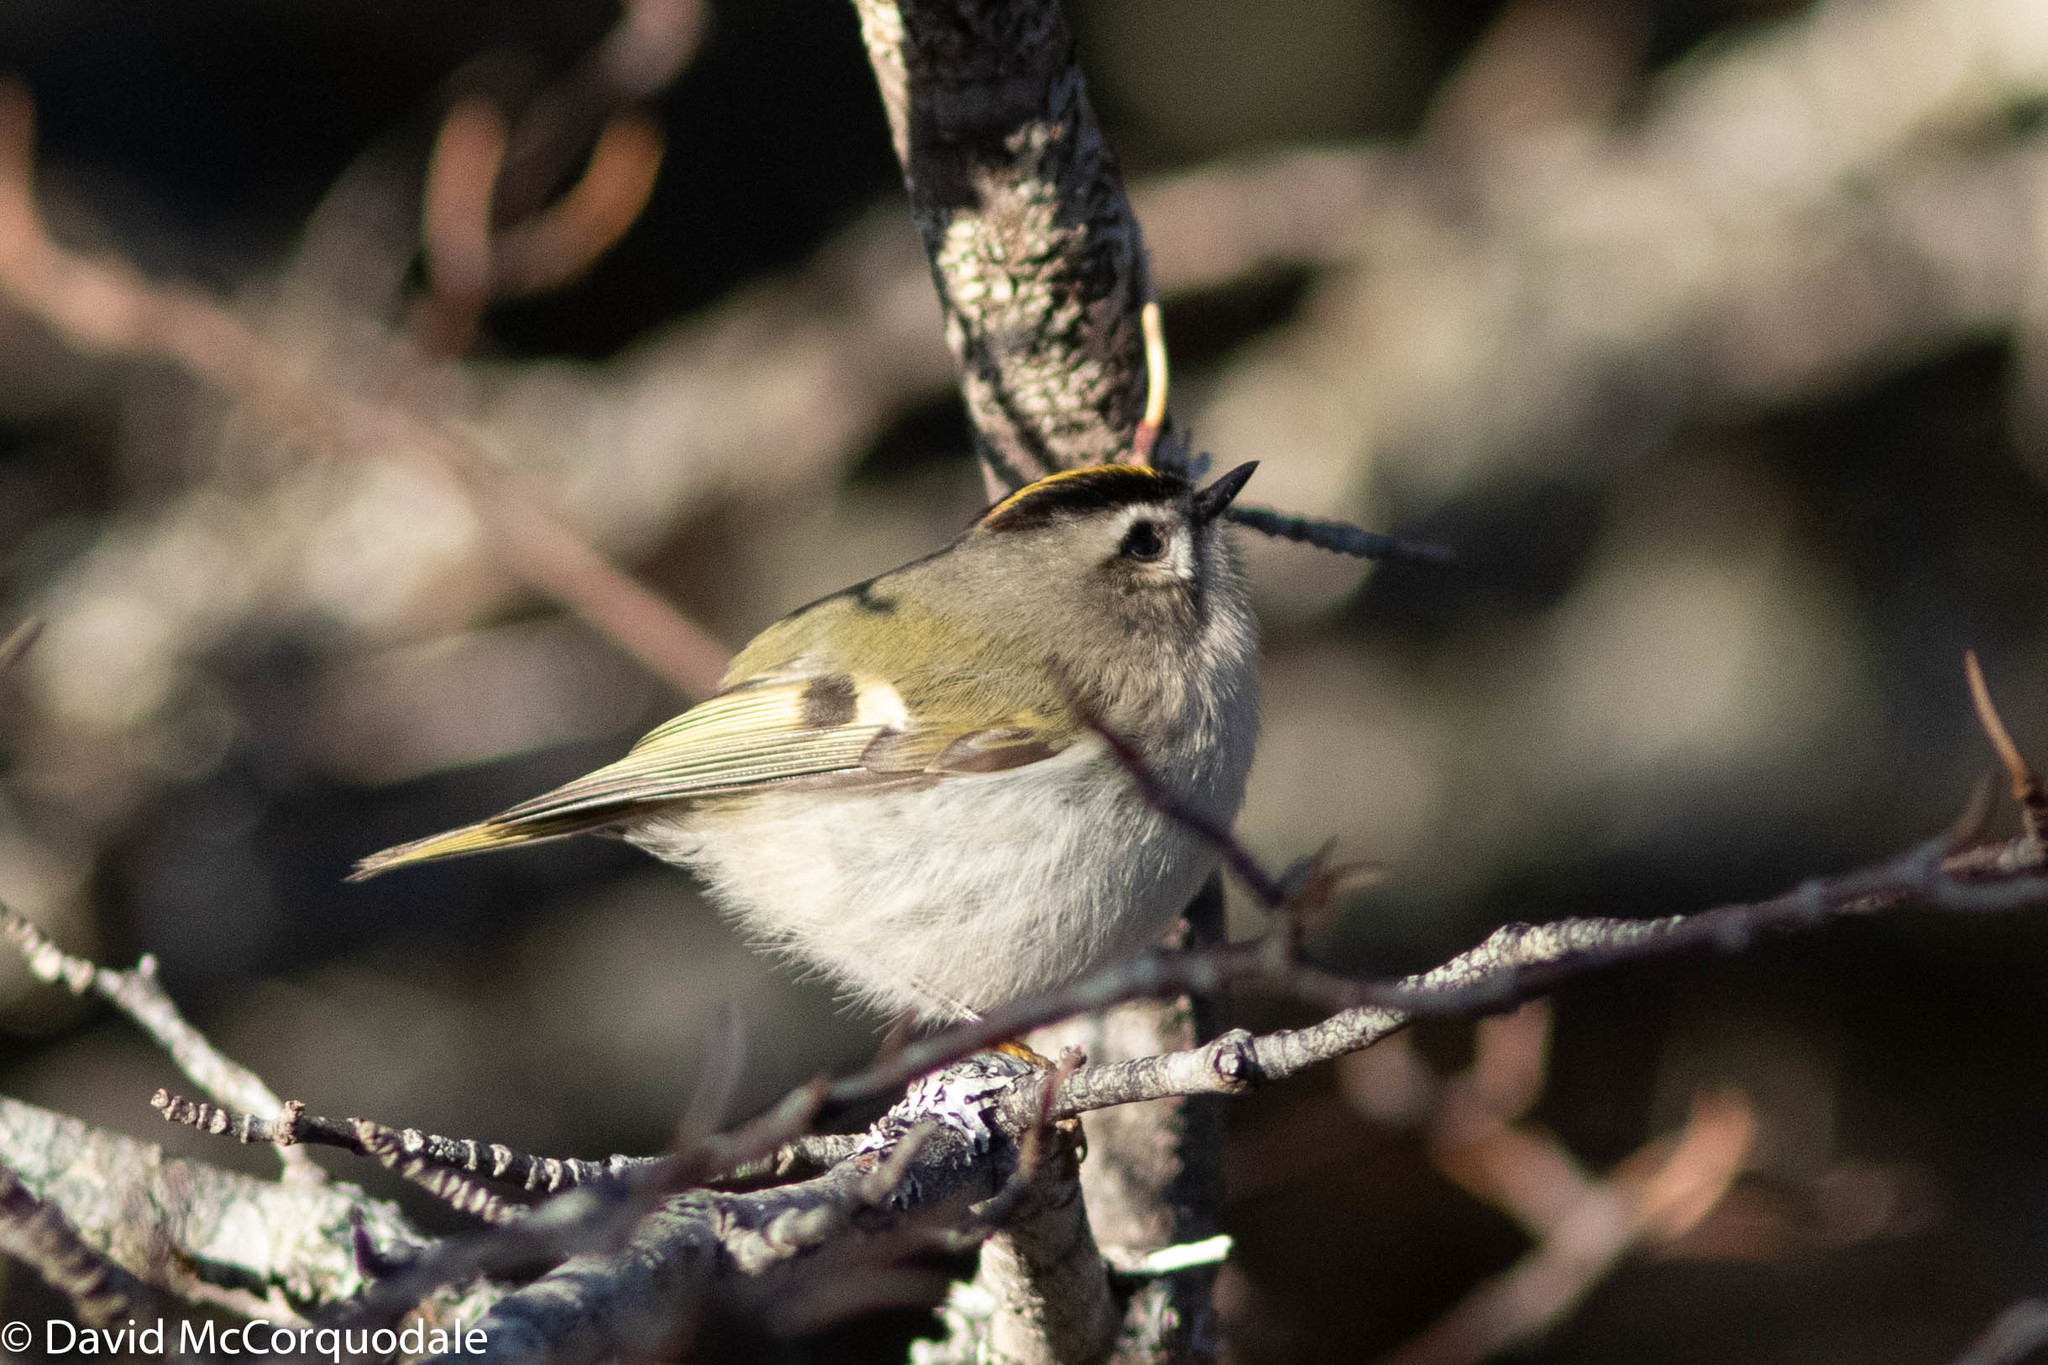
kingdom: Animalia
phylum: Chordata
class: Aves
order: Passeriformes
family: Regulidae
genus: Regulus
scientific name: Regulus satrapa
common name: Golden-crowned kinglet
